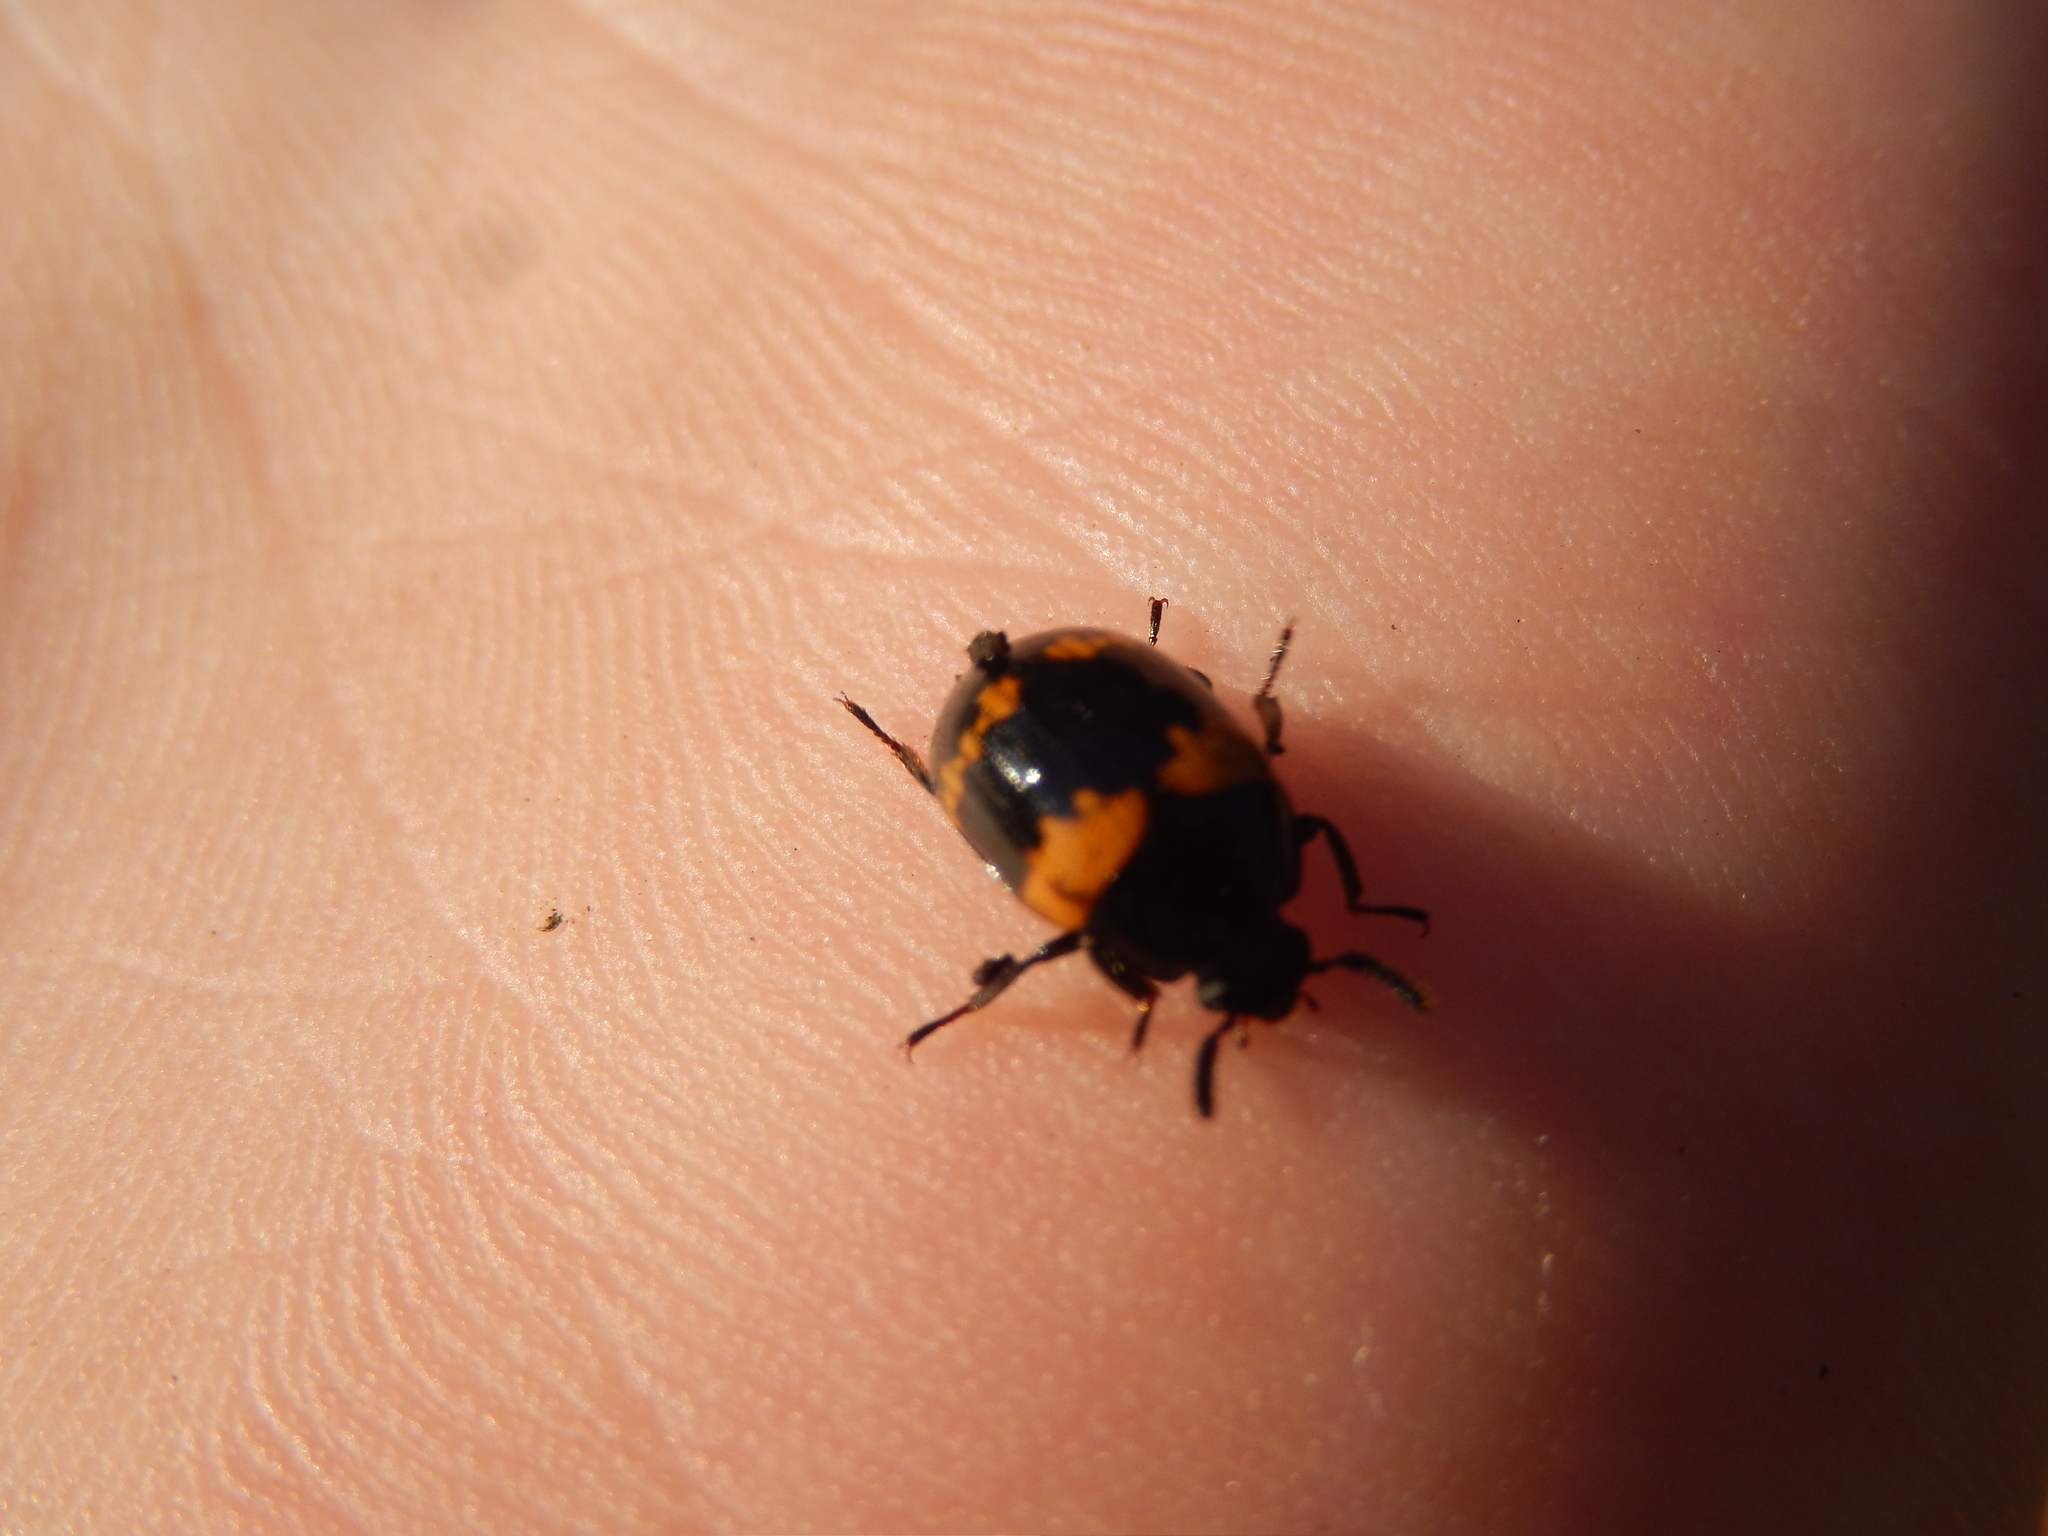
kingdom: Animalia
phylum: Arthropoda
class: Insecta
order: Coleoptera
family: Tenebrionidae
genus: Diaperis
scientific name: Diaperis boleti
